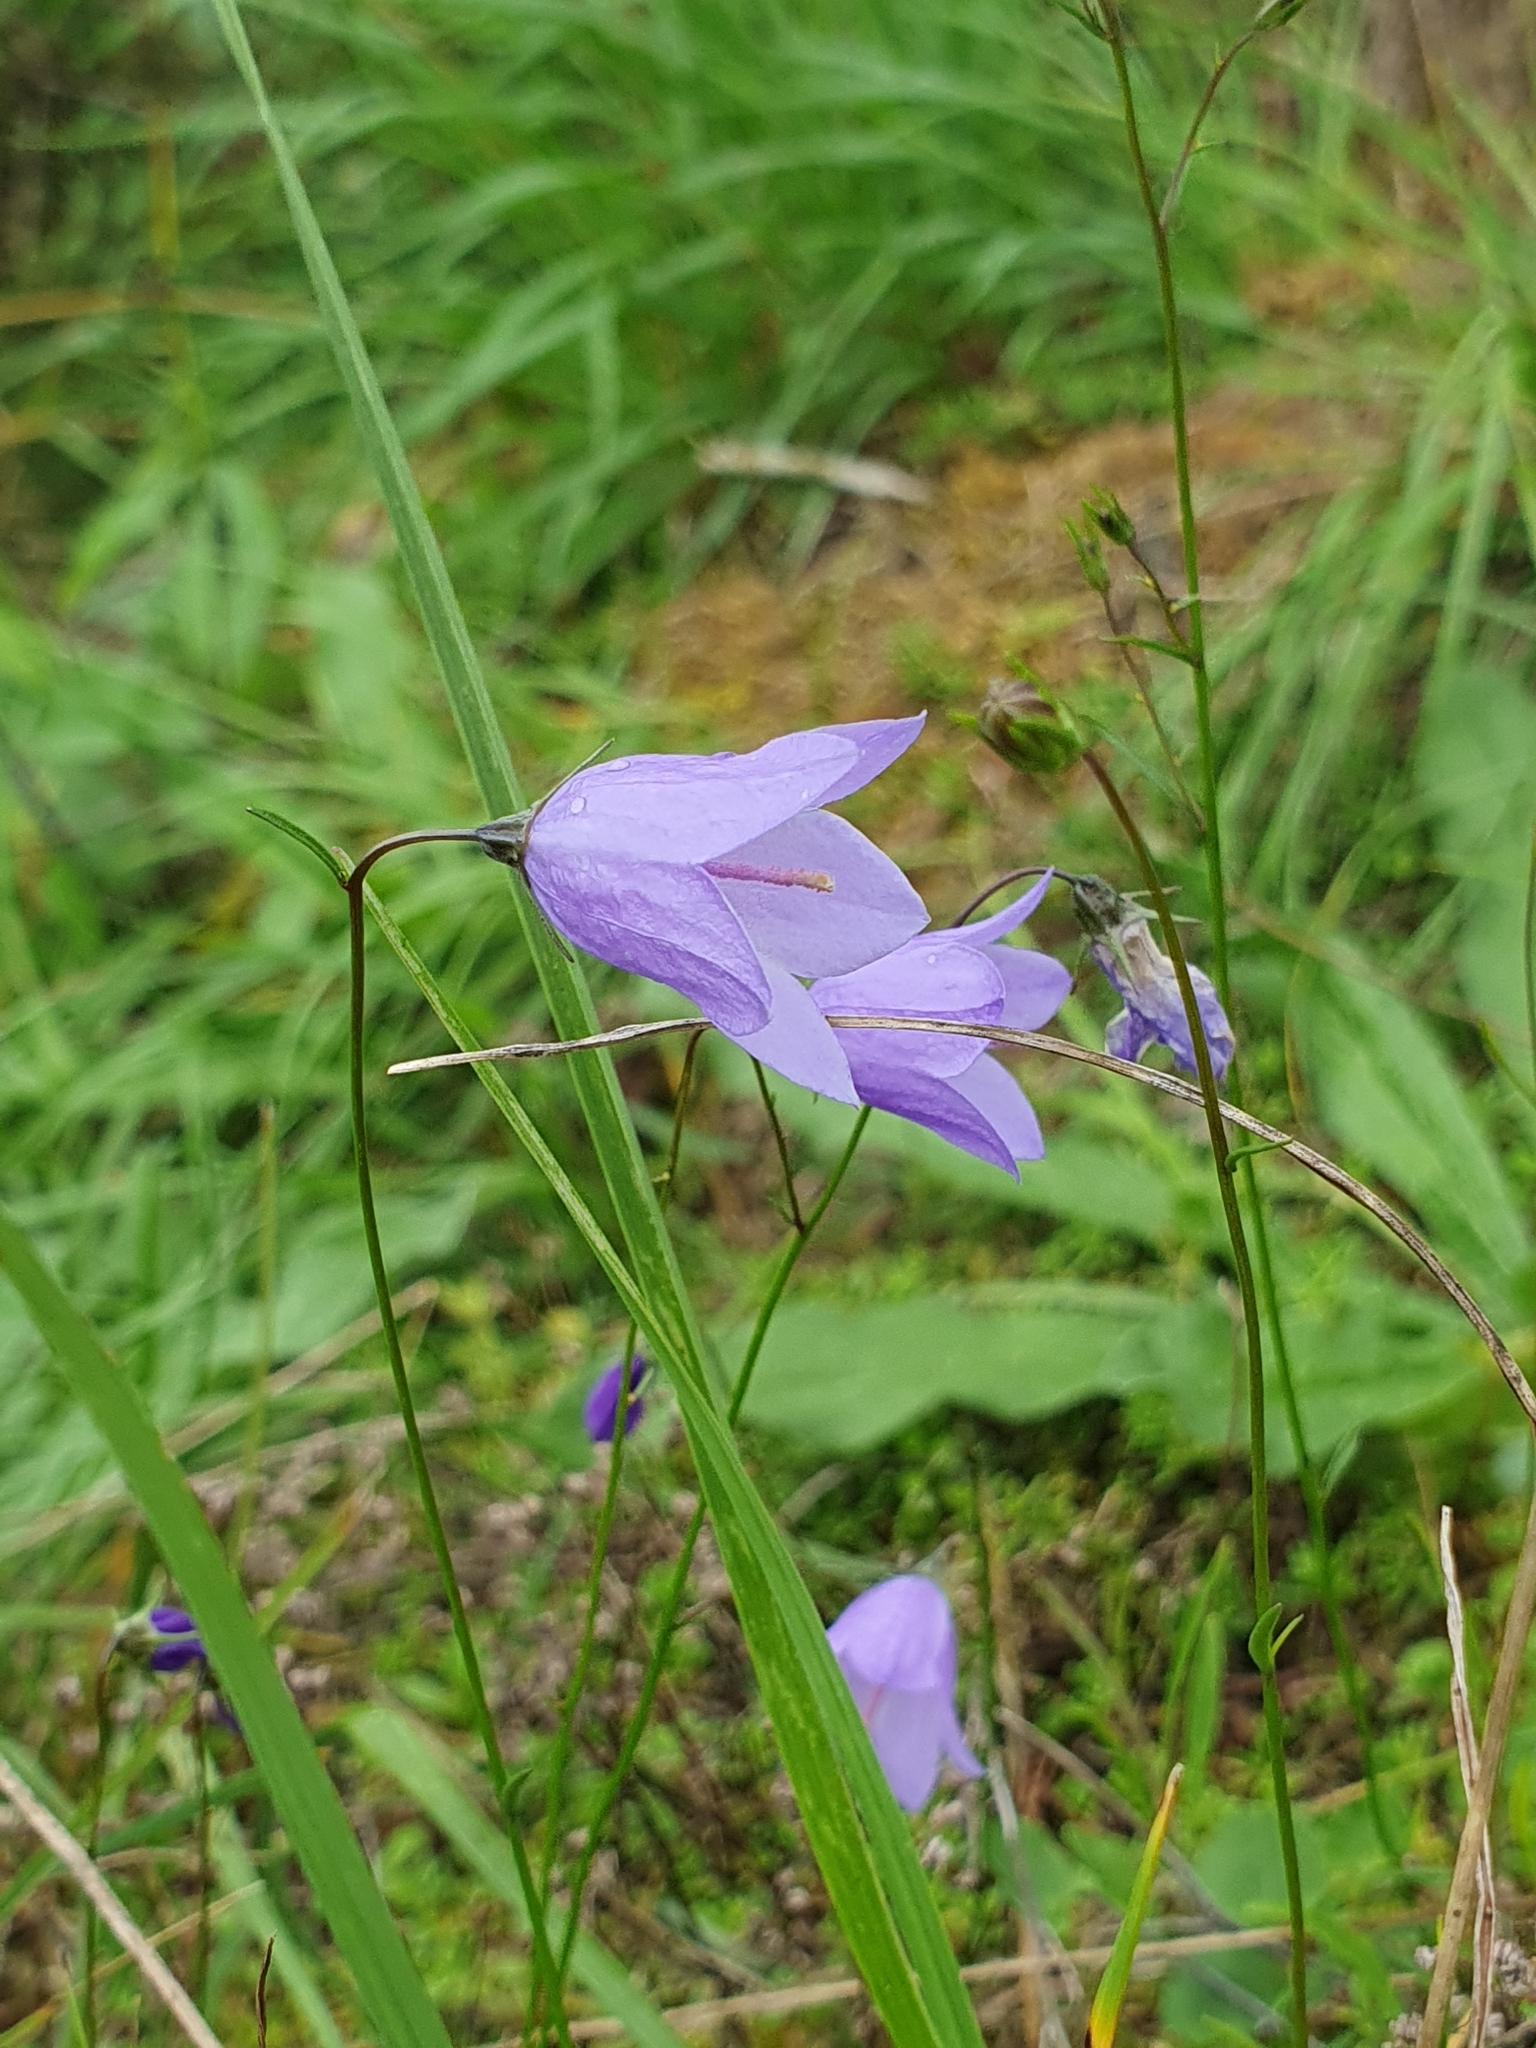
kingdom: Plantae
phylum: Tracheophyta
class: Magnoliopsida
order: Asterales
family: Campanulaceae
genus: Campanula
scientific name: Campanula rotundifolia
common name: Harebell
